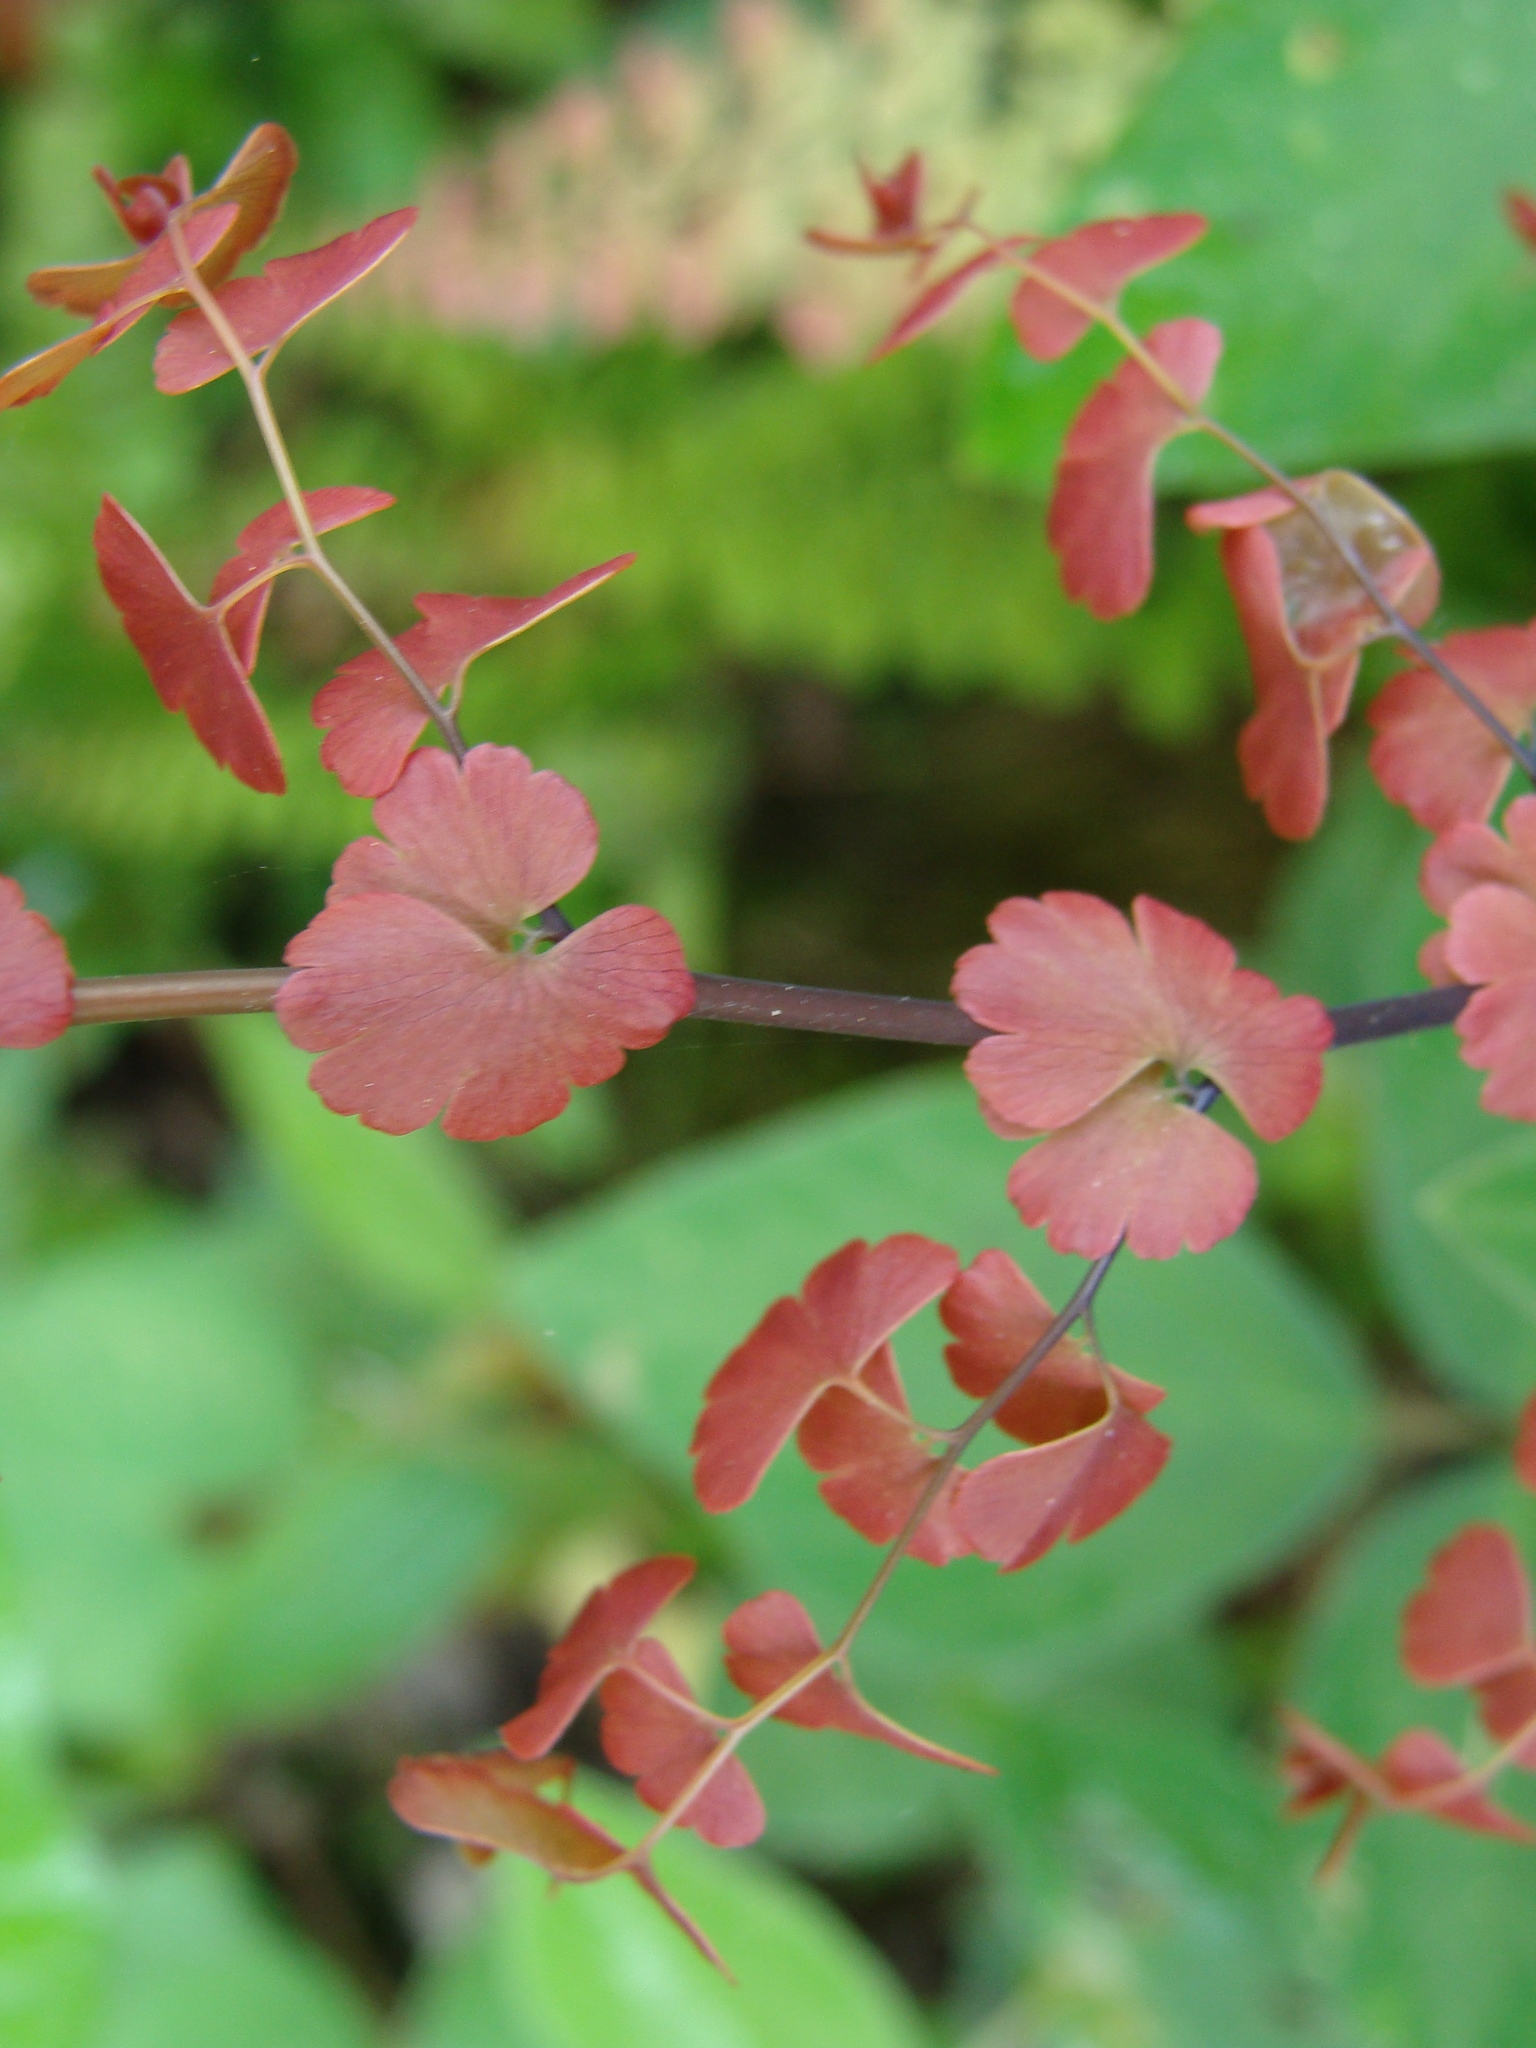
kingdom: Plantae
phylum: Tracheophyta
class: Polypodiopsida
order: Polypodiales
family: Pteridaceae
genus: Adiantum
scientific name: Adiantum concinnum
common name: Brittle maidenhair fern
